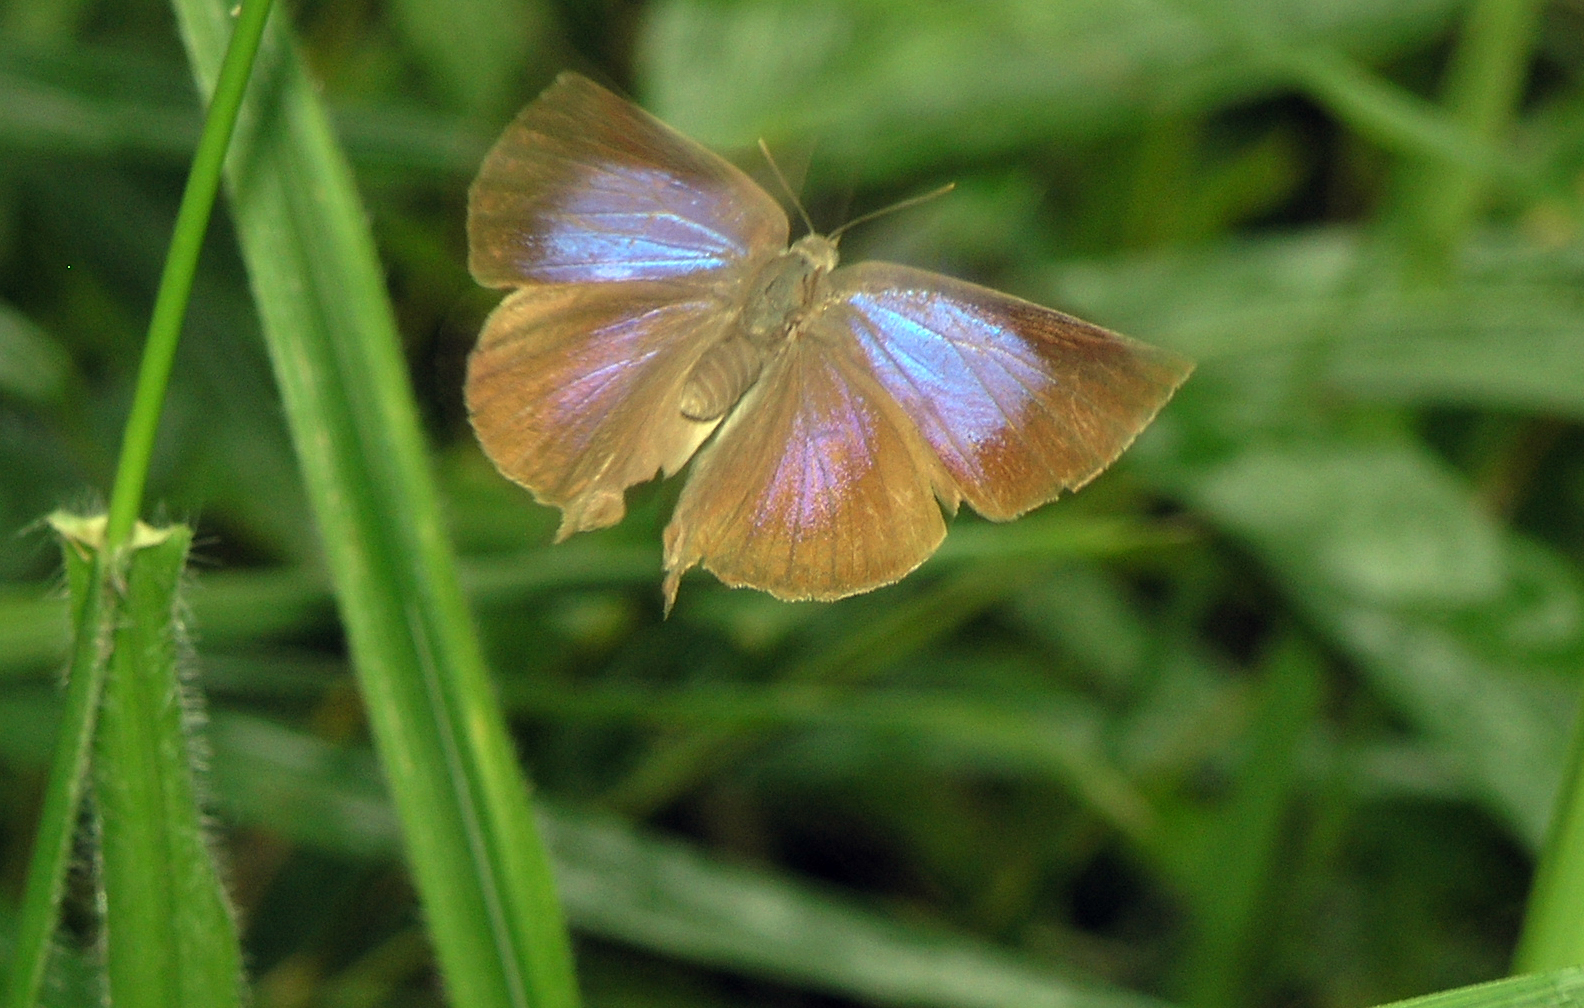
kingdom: Animalia
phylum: Arthropoda
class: Insecta
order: Lepidoptera
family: Lycaenidae
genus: Amblypodia
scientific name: Amblypodia anita
